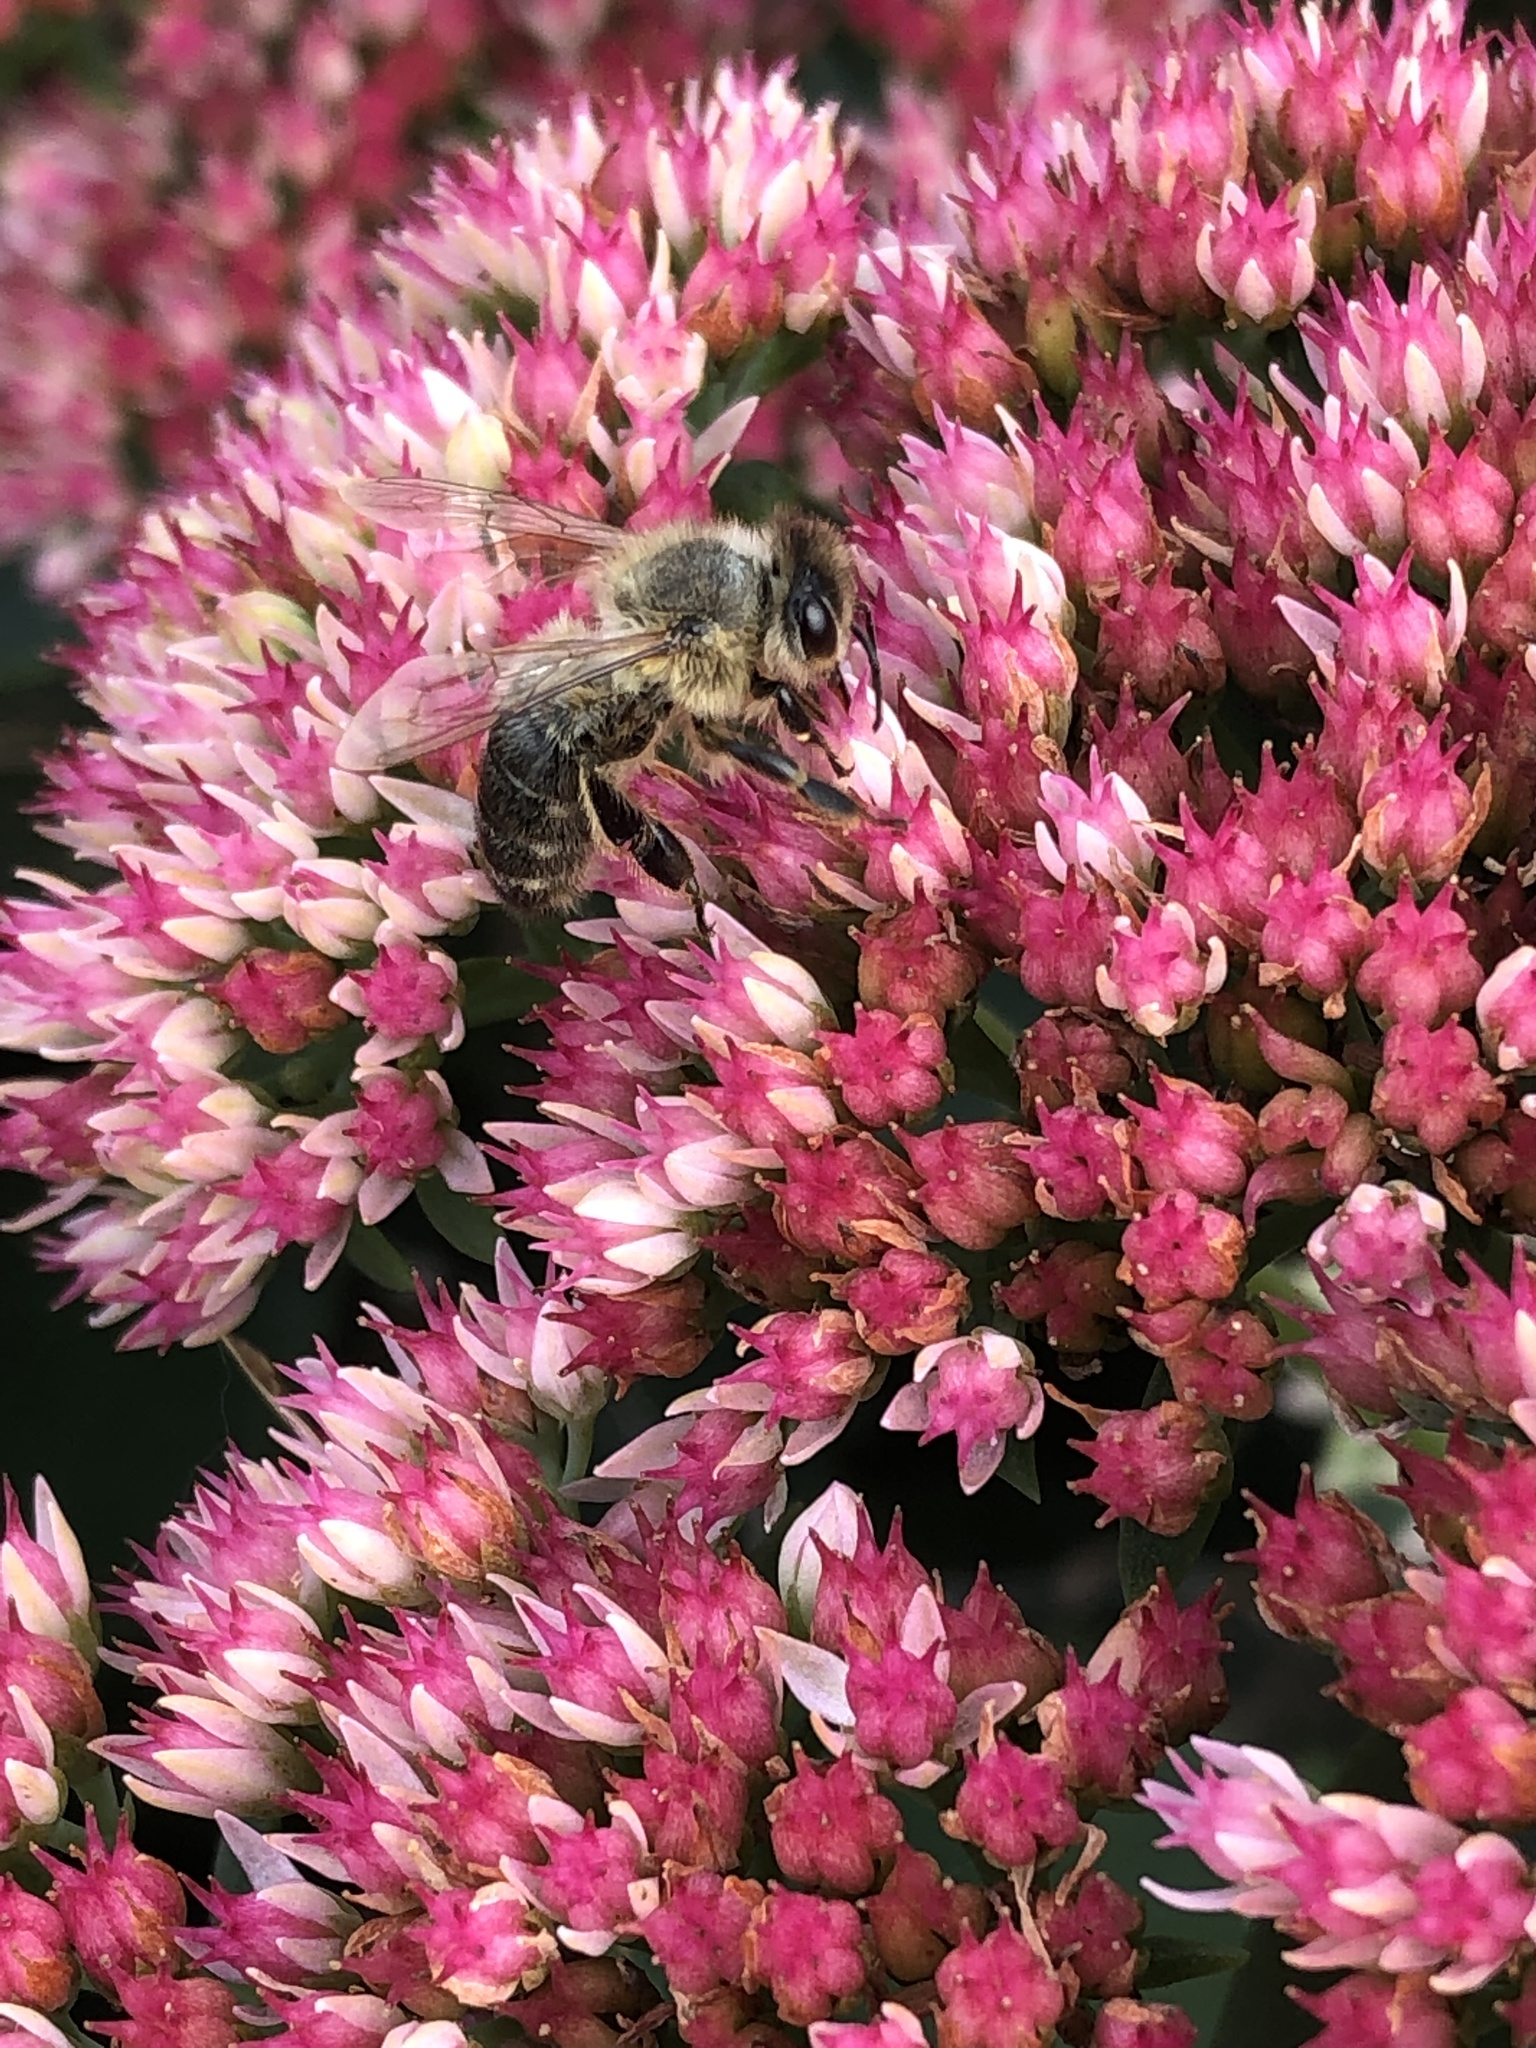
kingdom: Animalia
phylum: Arthropoda
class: Insecta
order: Hymenoptera
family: Apidae
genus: Apis
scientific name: Apis mellifera
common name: Honey bee
